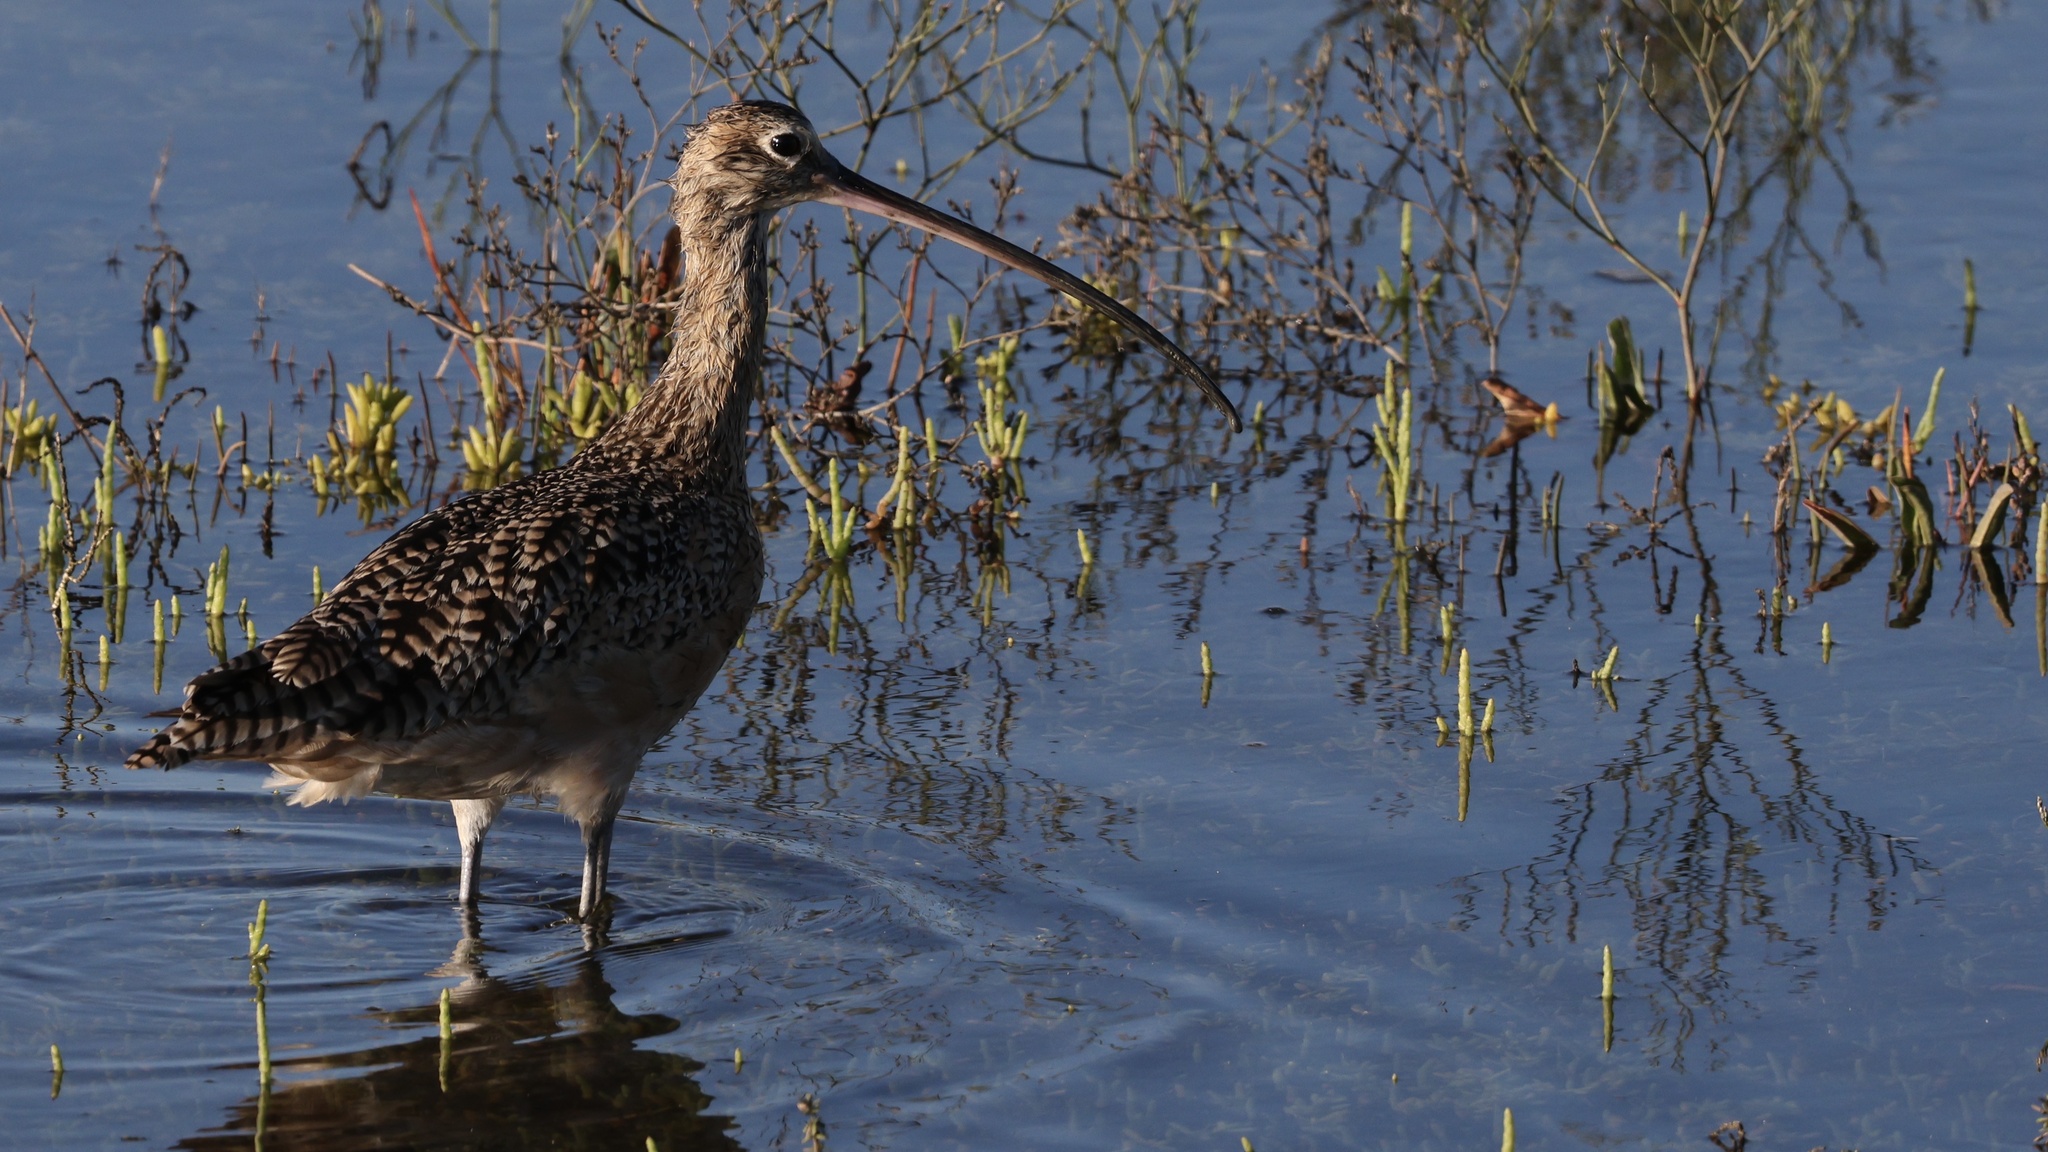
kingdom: Animalia
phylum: Chordata
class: Aves
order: Charadriiformes
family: Scolopacidae
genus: Numenius
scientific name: Numenius americanus
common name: Long-billed curlew
